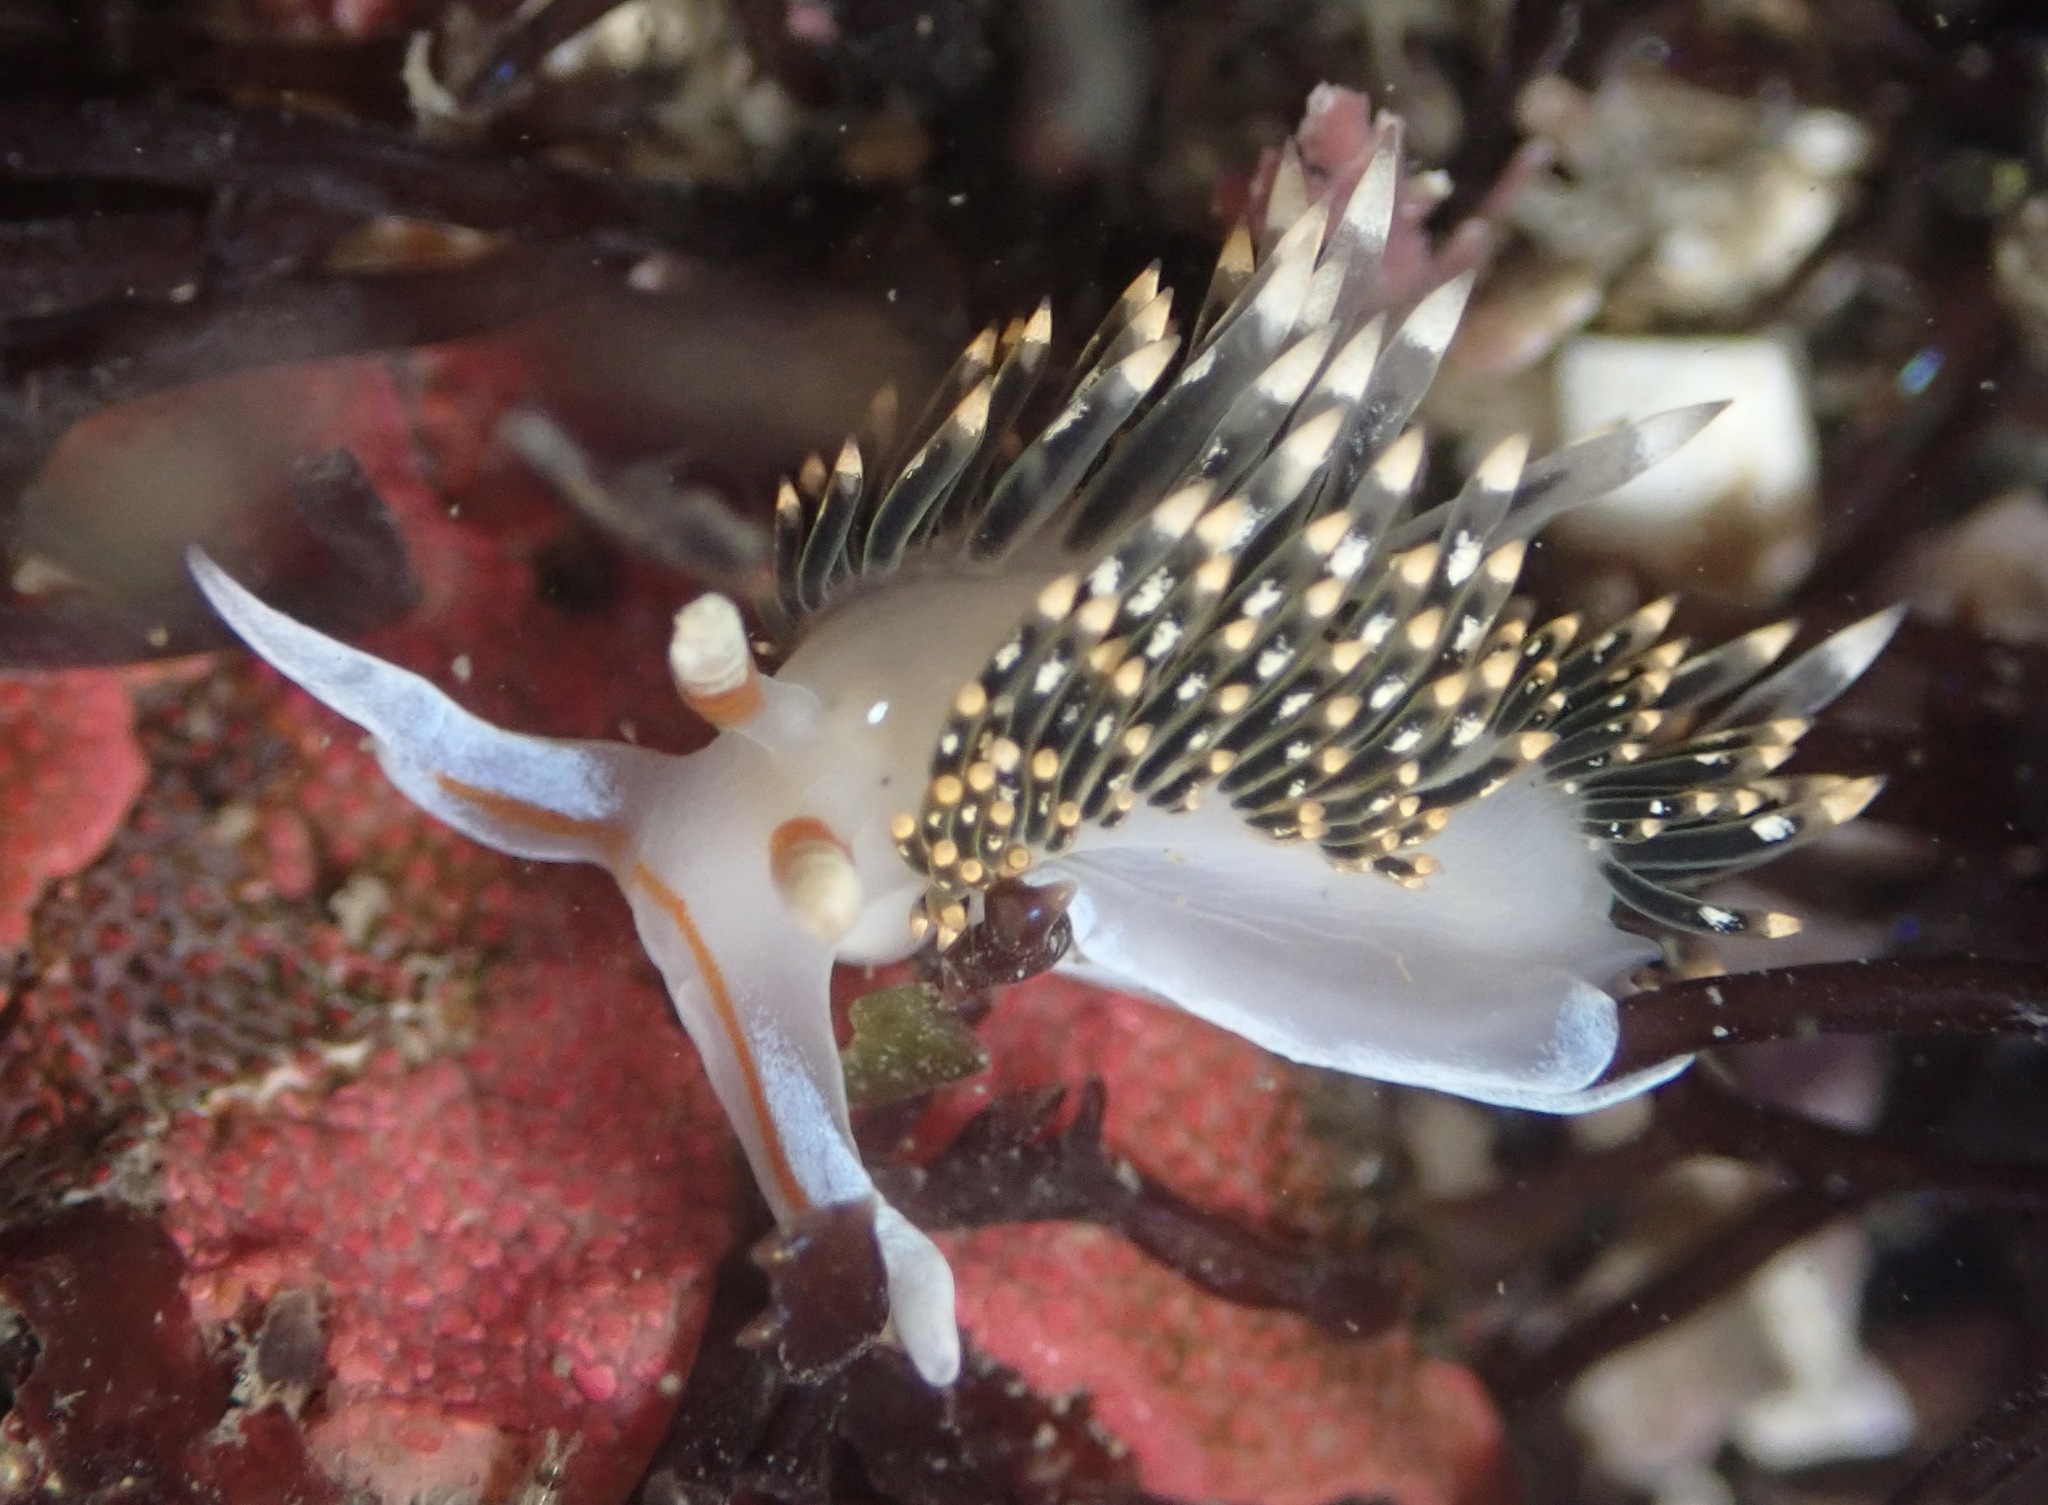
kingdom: Animalia
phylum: Mollusca
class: Gastropoda
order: Nudibranchia
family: Facelinidae
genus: Phidiana
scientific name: Phidiana hiltoni
